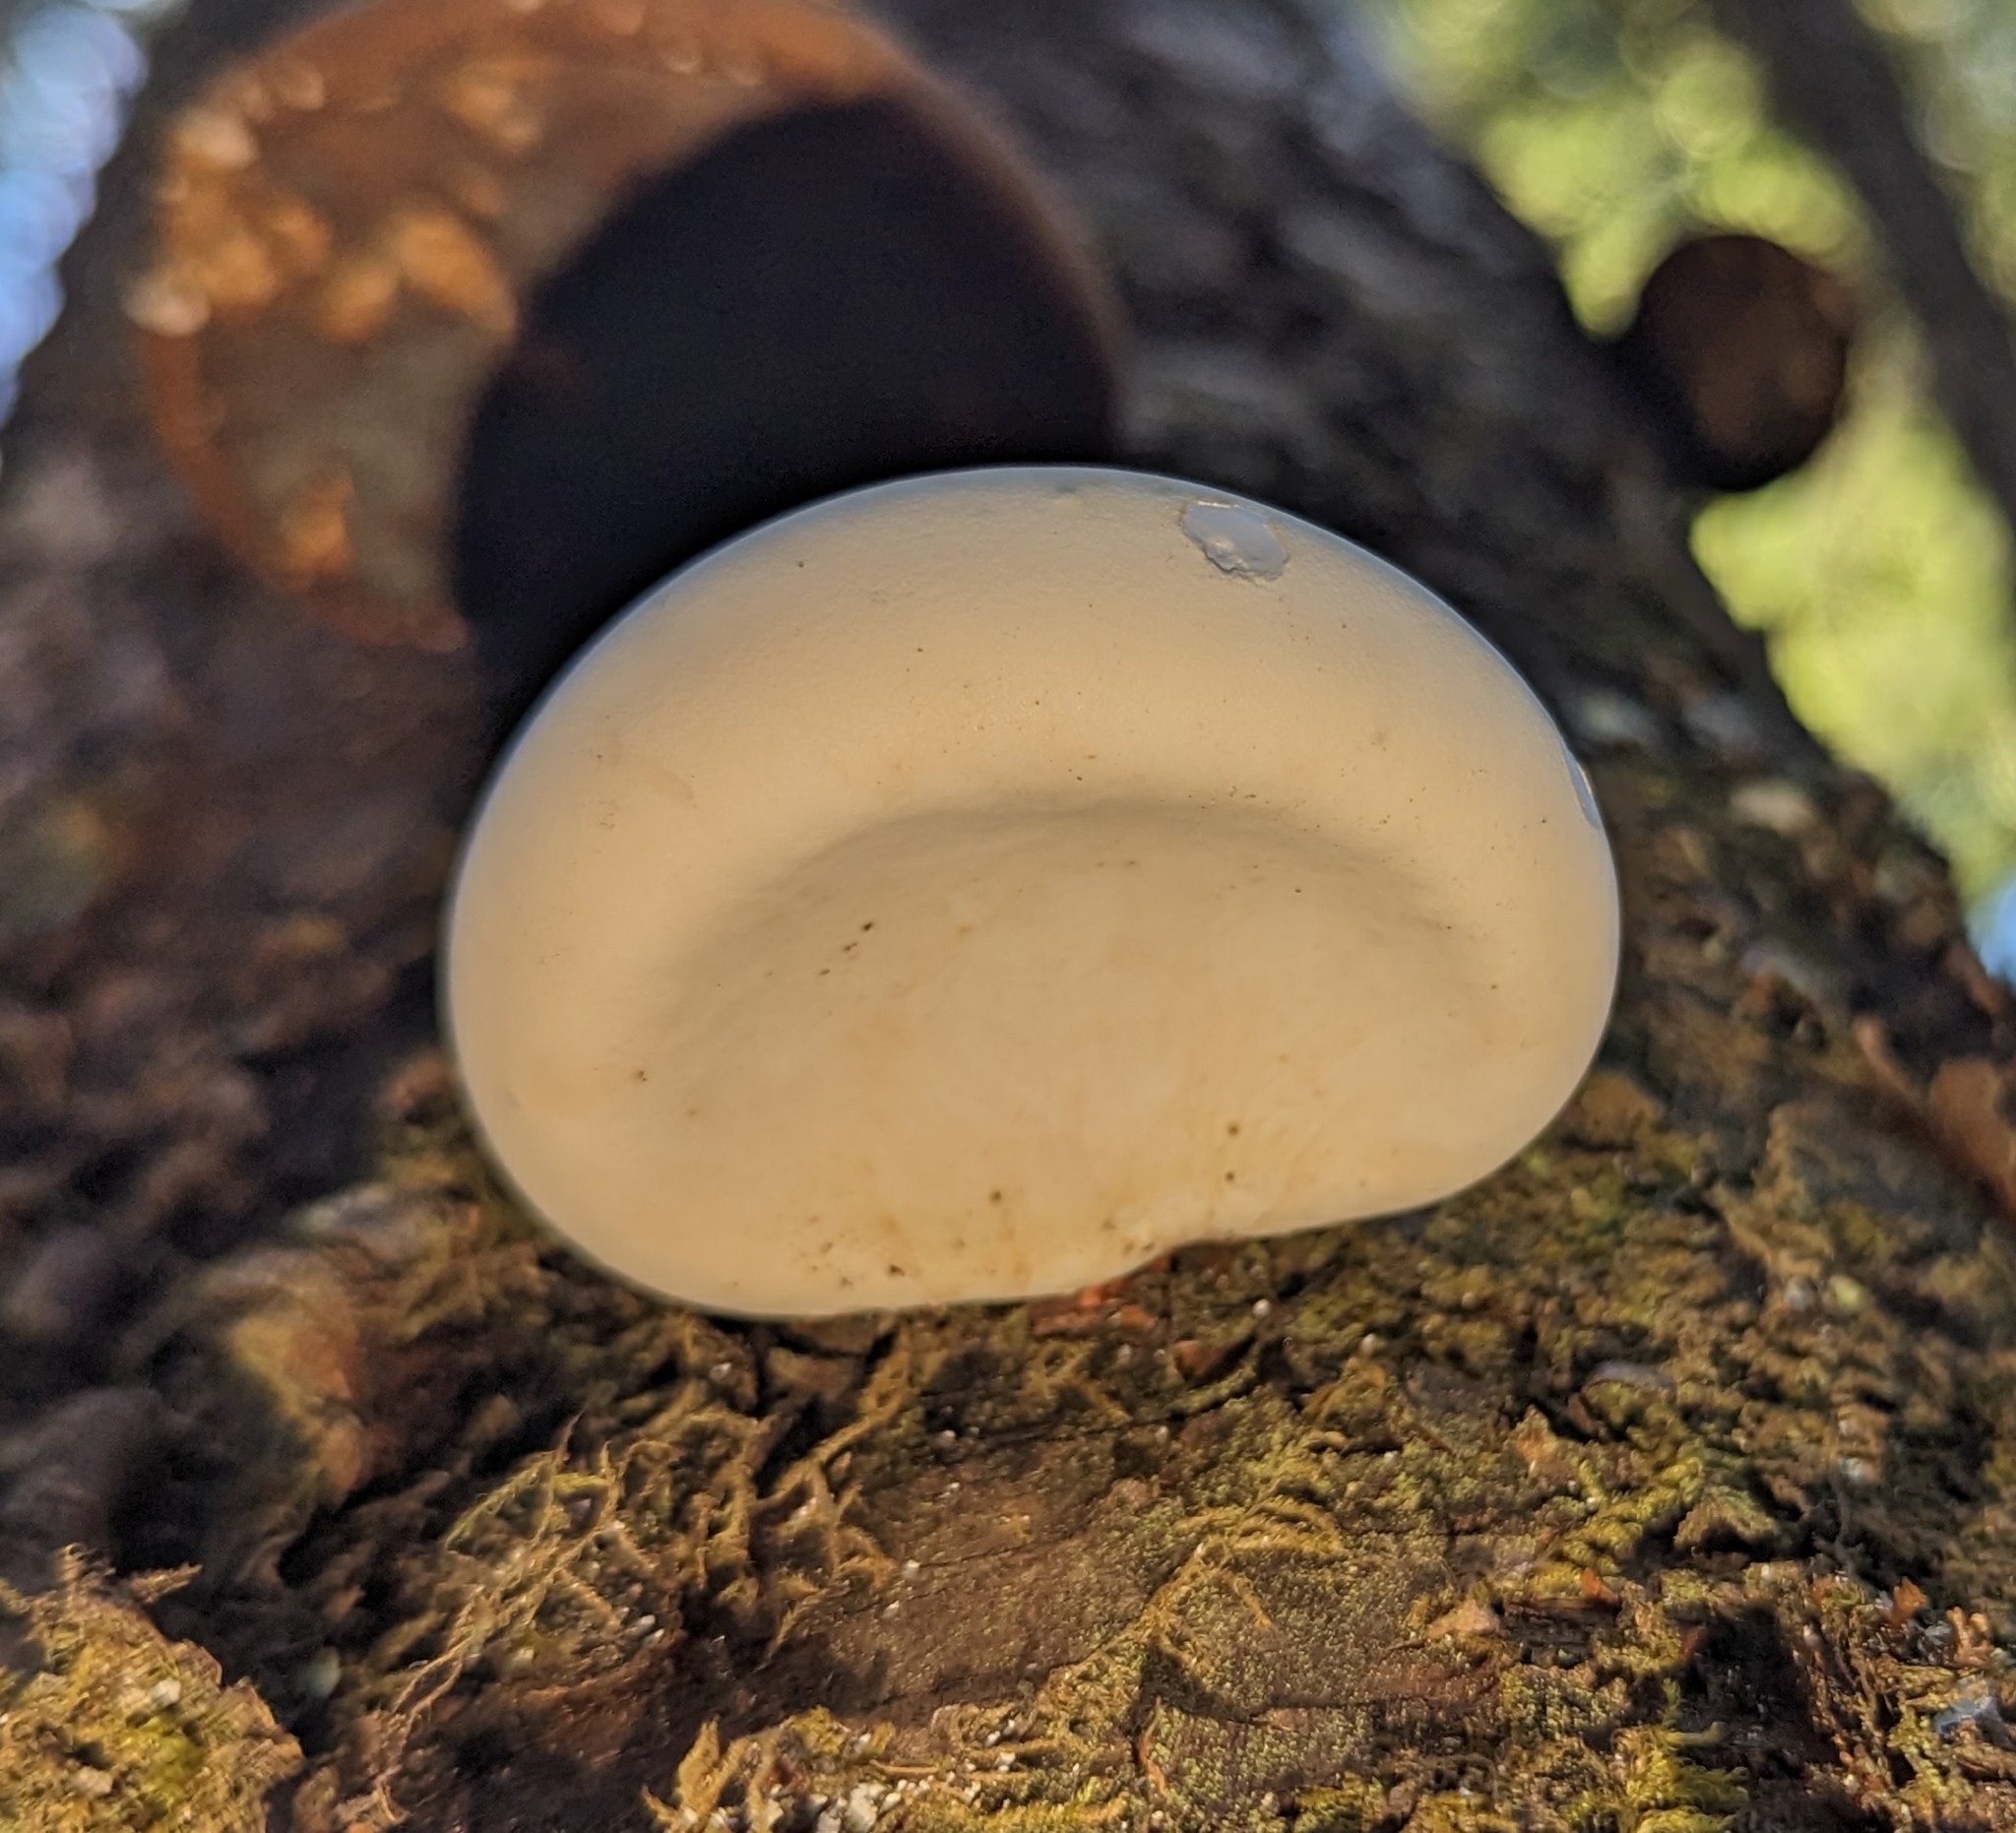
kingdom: Fungi
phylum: Basidiomycota
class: Agaricomycetes
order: Polyporales
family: Fomitopsidaceae
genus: Fomitopsis
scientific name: Fomitopsis betulina
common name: Birch polypore
